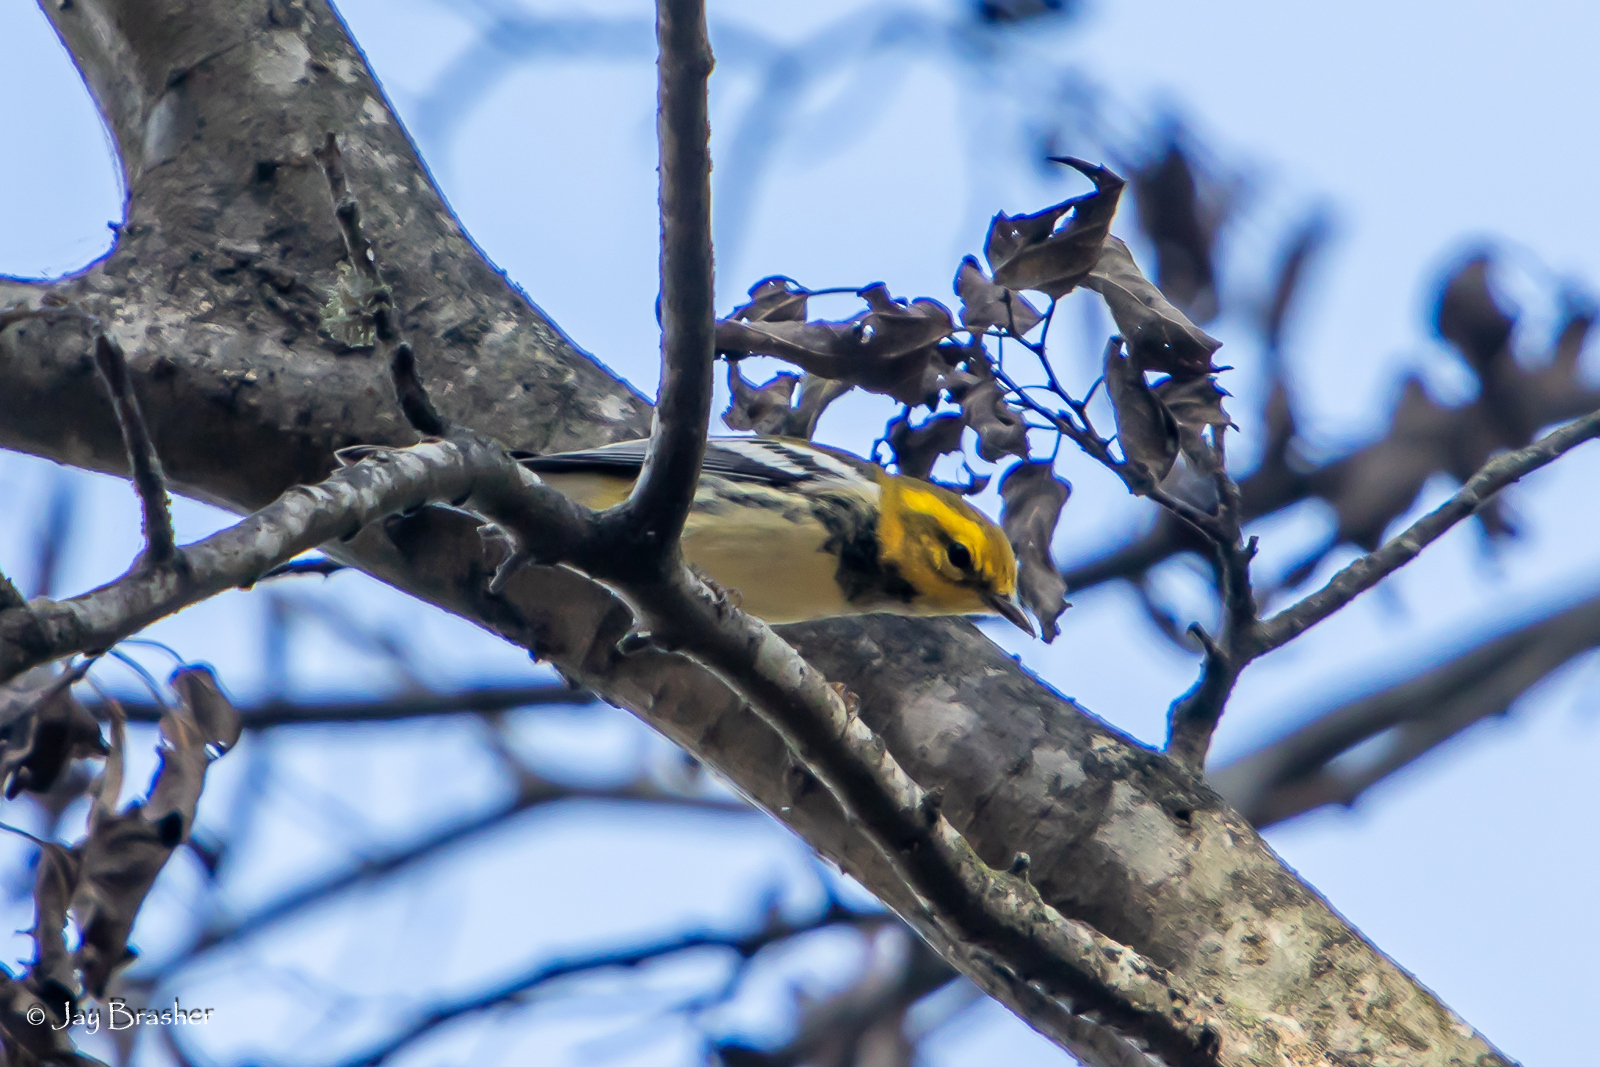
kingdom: Animalia
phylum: Chordata
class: Aves
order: Passeriformes
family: Parulidae
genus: Setophaga
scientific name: Setophaga virens
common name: Black-throated green warbler
